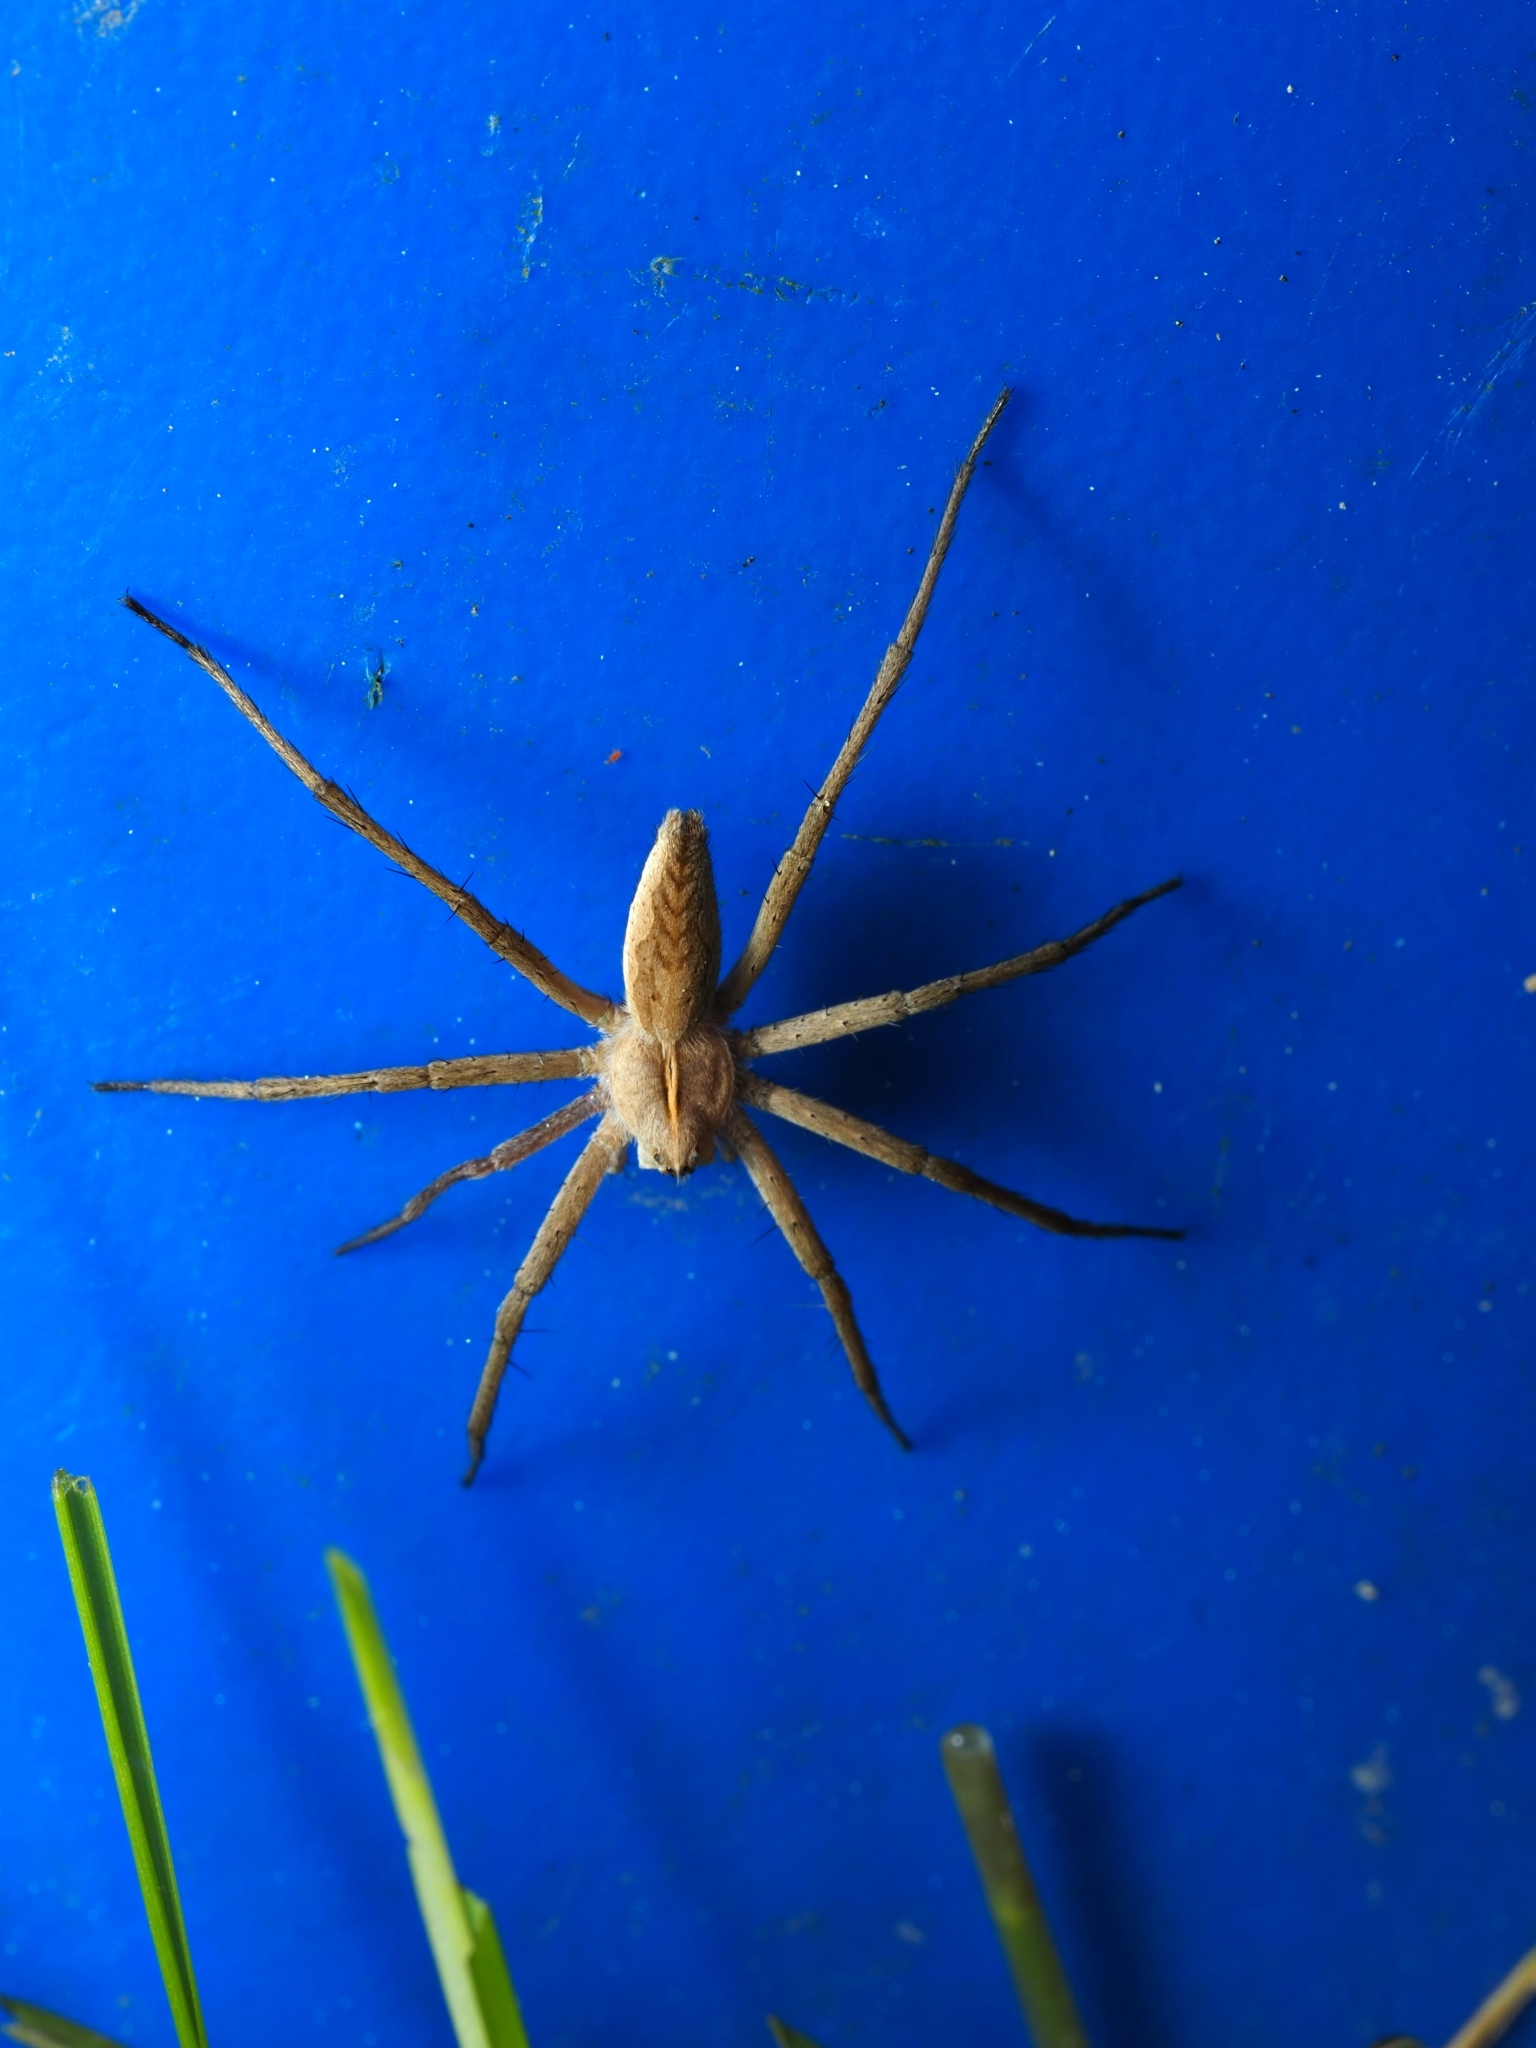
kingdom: Animalia
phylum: Arthropoda
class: Arachnida
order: Araneae
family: Pisauridae
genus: Pisaura
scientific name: Pisaura mirabilis
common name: Tent spider
